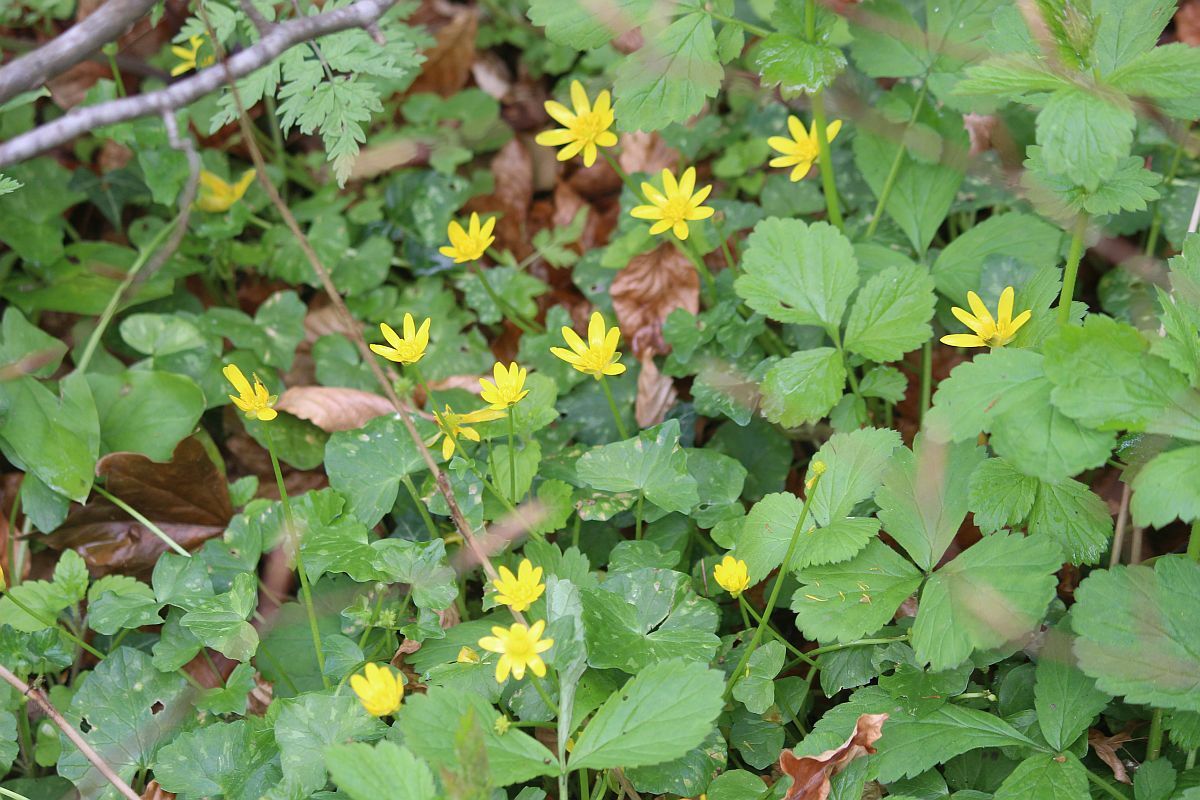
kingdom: Plantae
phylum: Tracheophyta
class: Magnoliopsida
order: Ranunculales
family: Ranunculaceae
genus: Ficaria
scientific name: Ficaria verna
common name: Lesser celandine
